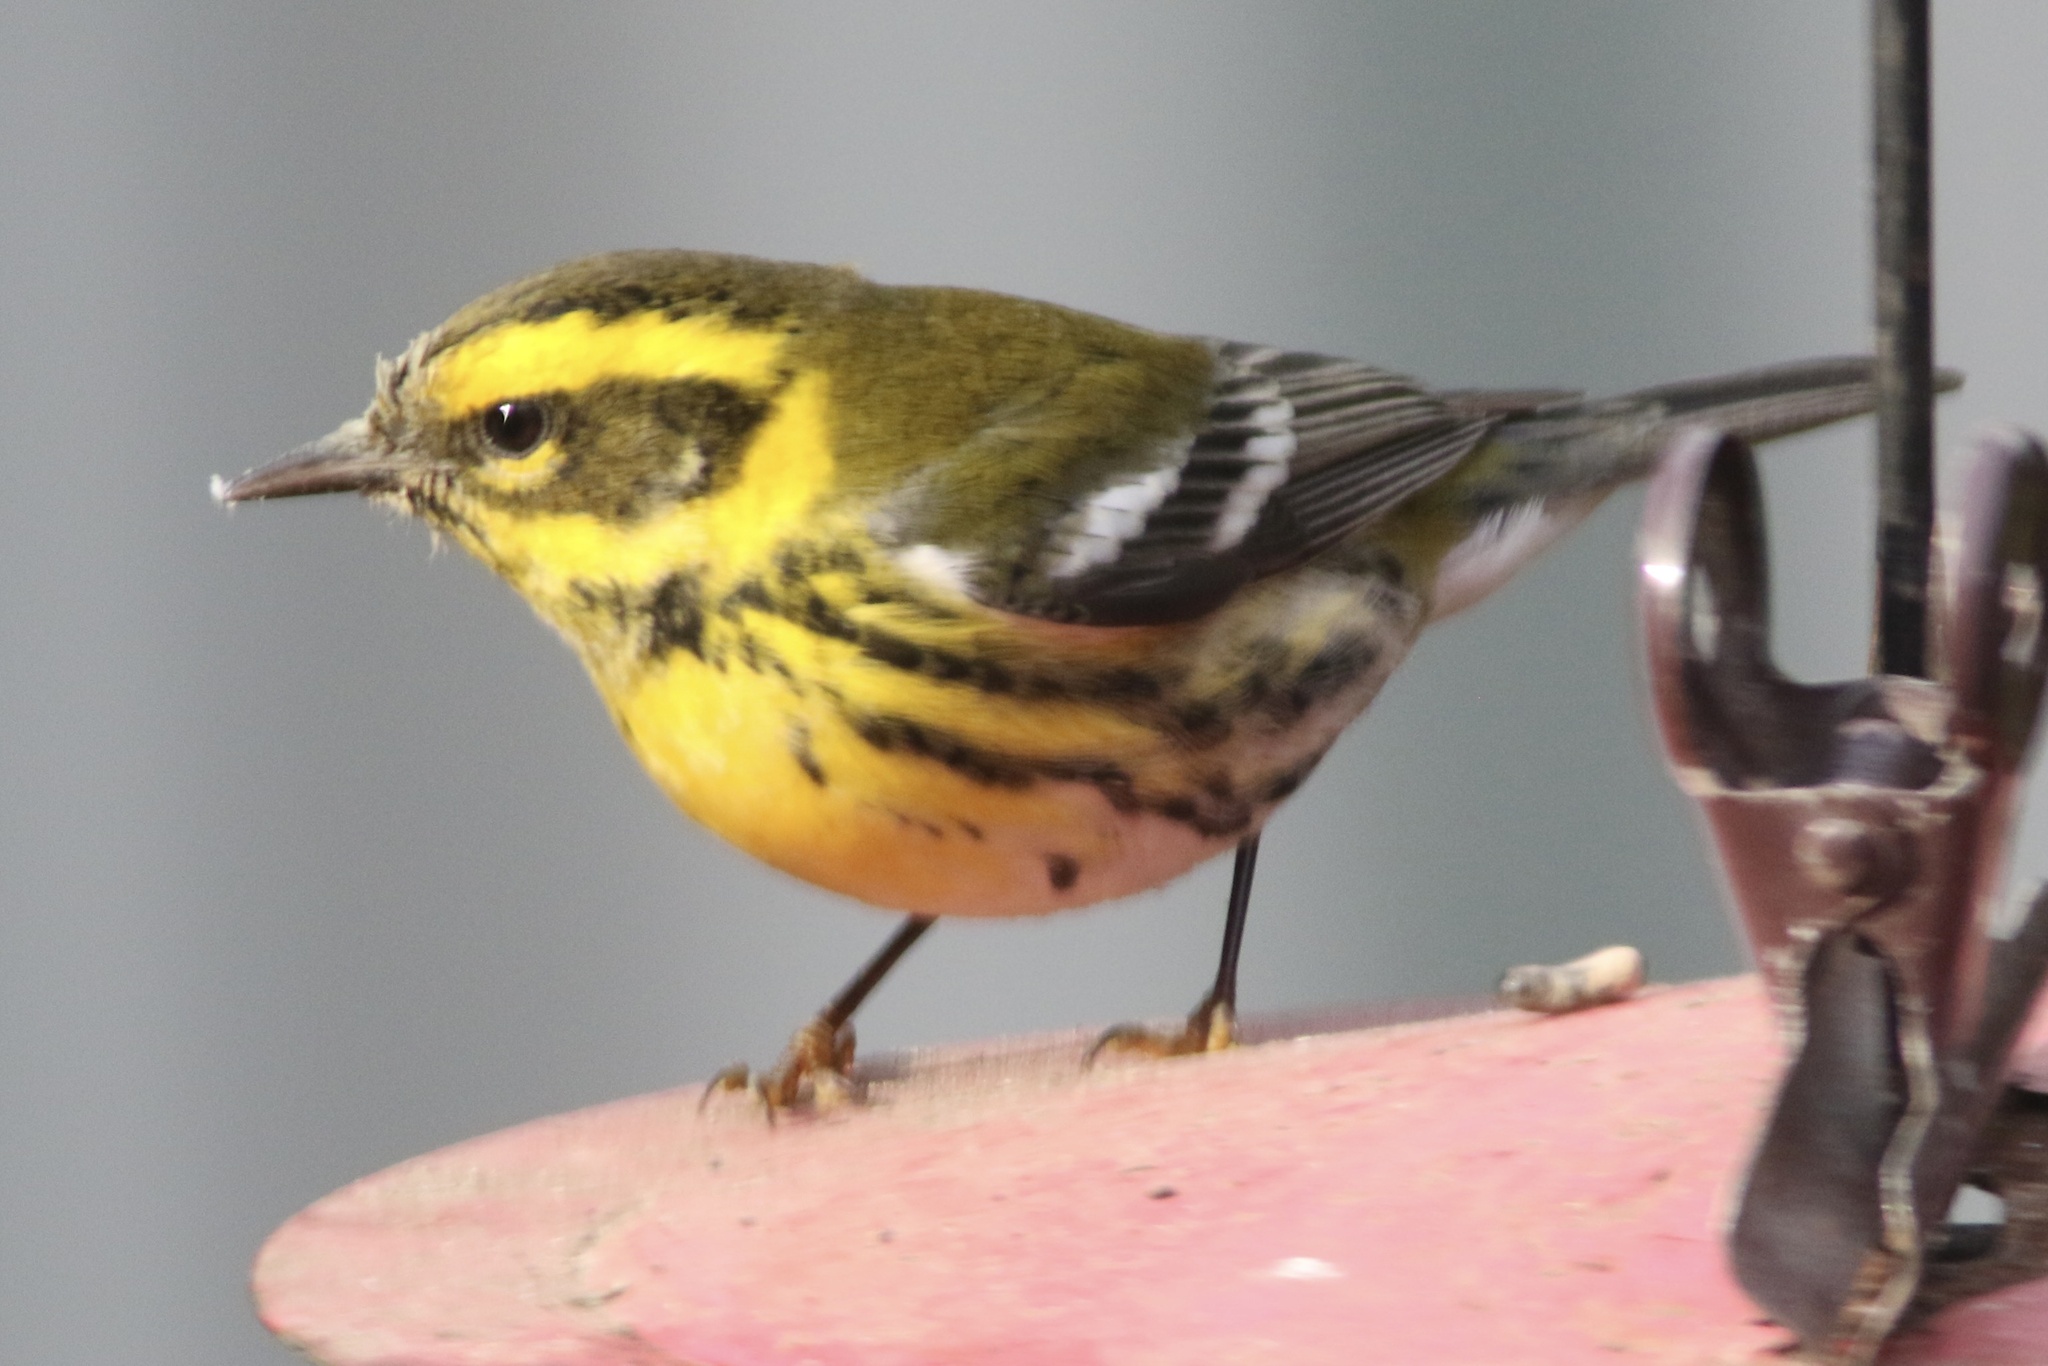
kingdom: Animalia
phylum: Chordata
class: Aves
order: Passeriformes
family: Parulidae
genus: Setophaga
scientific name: Setophaga townsendi
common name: Townsend's warbler
